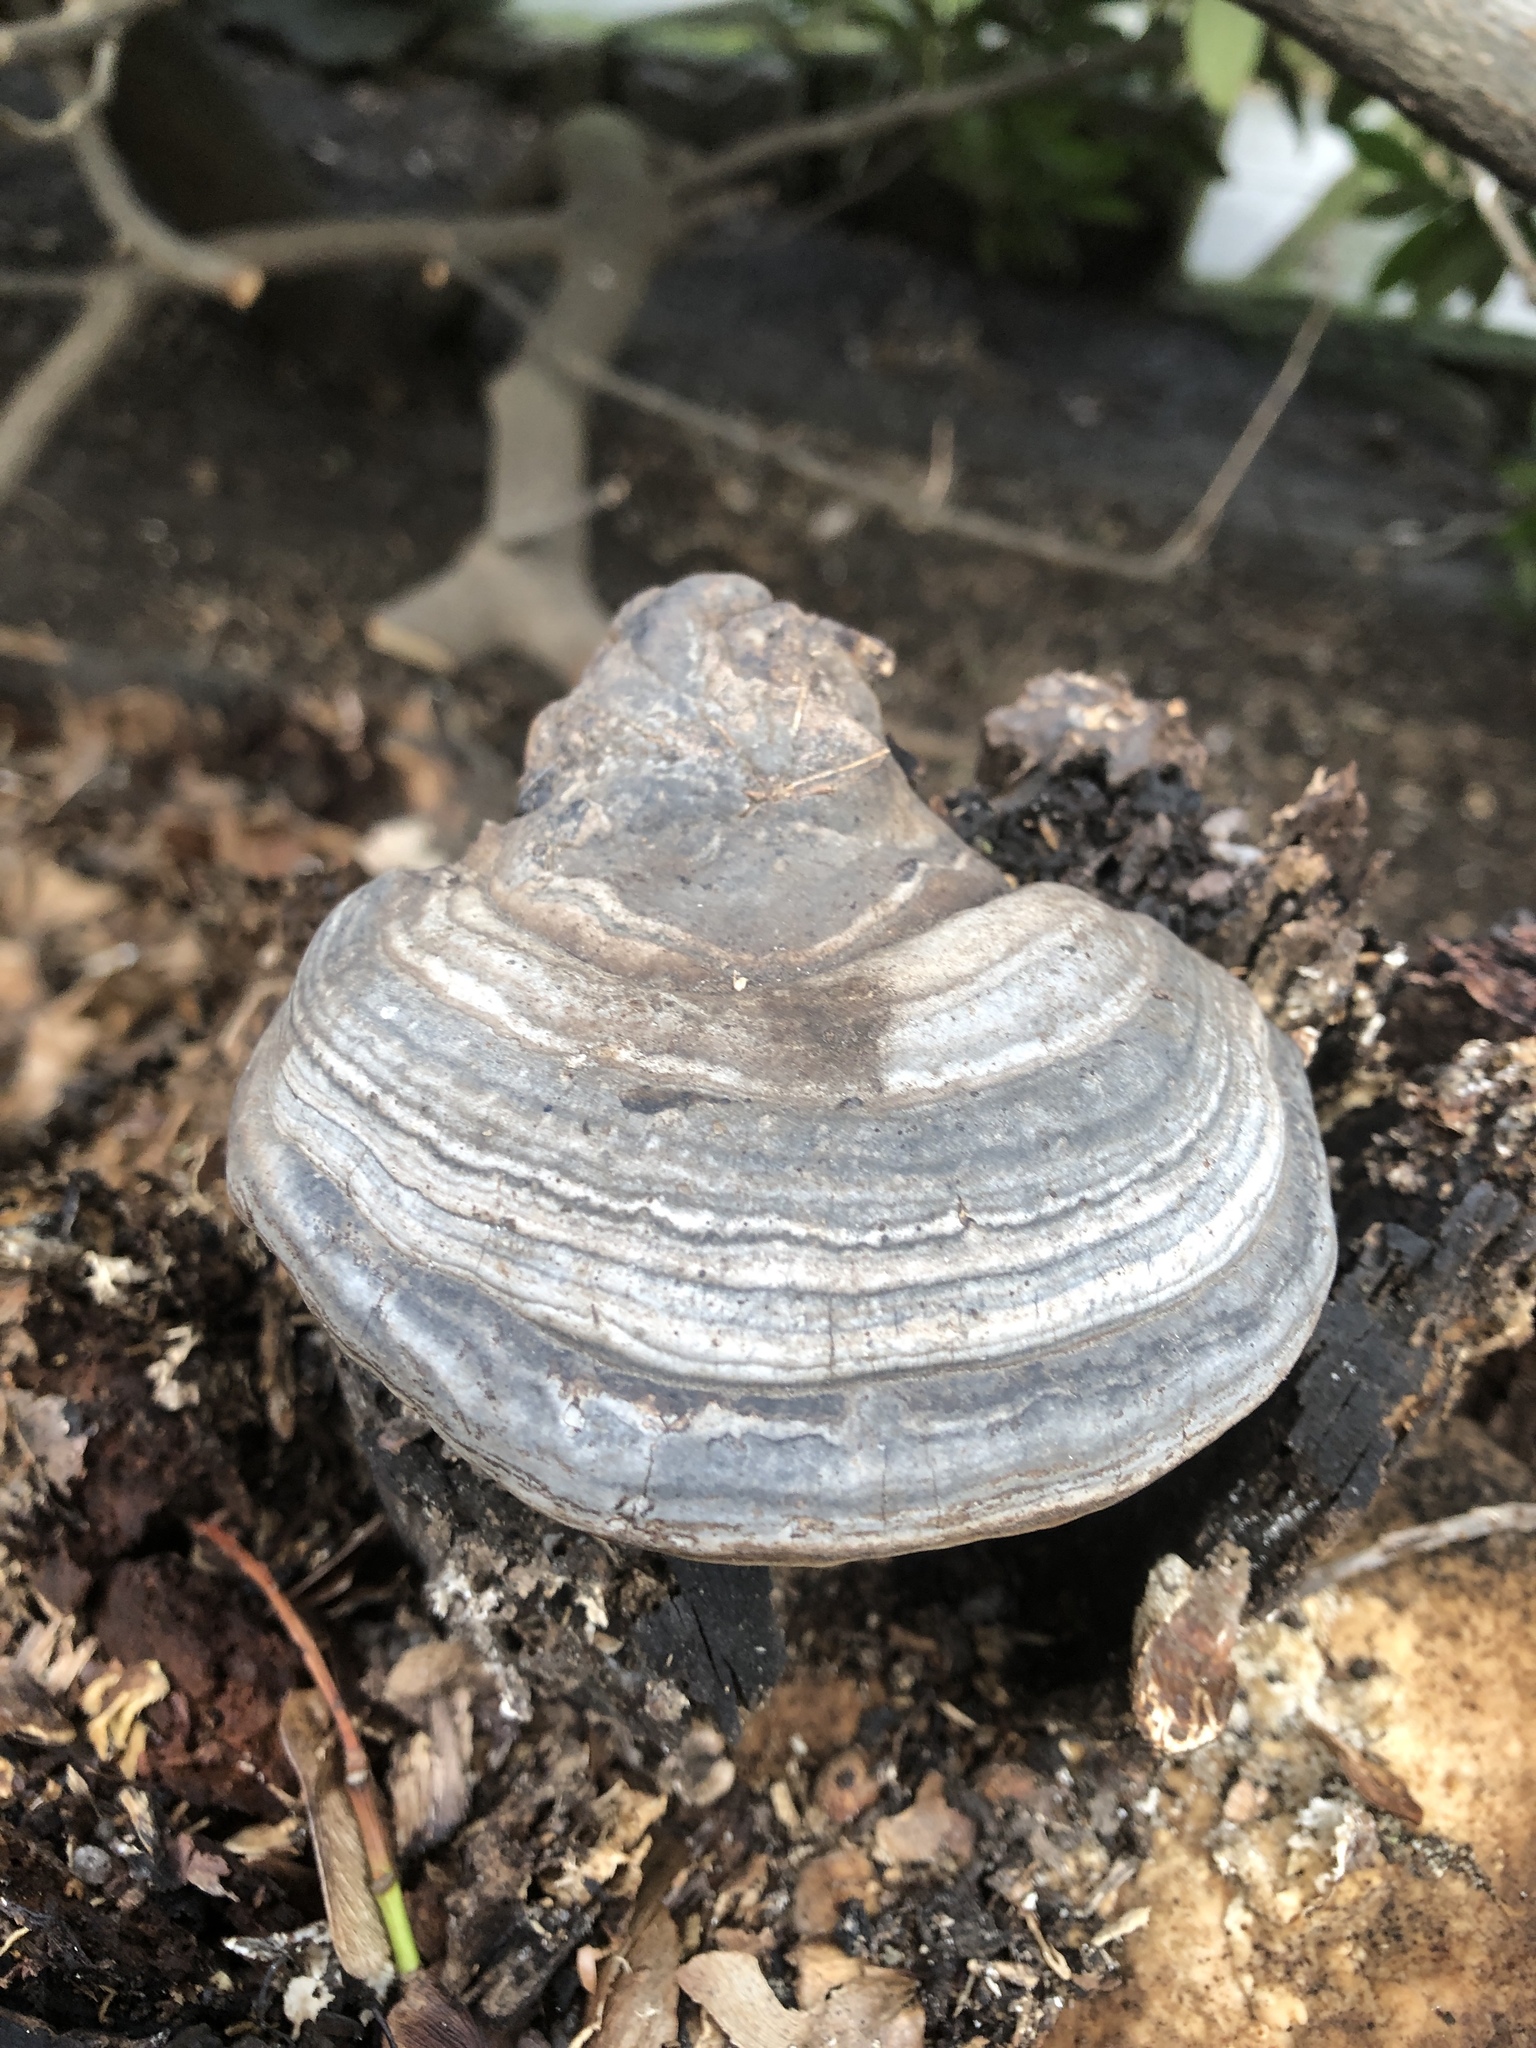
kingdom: Fungi
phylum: Basidiomycota
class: Agaricomycetes
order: Polyporales
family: Polyporaceae
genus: Fomes
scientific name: Fomes fomentarius
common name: Hoof fungus
